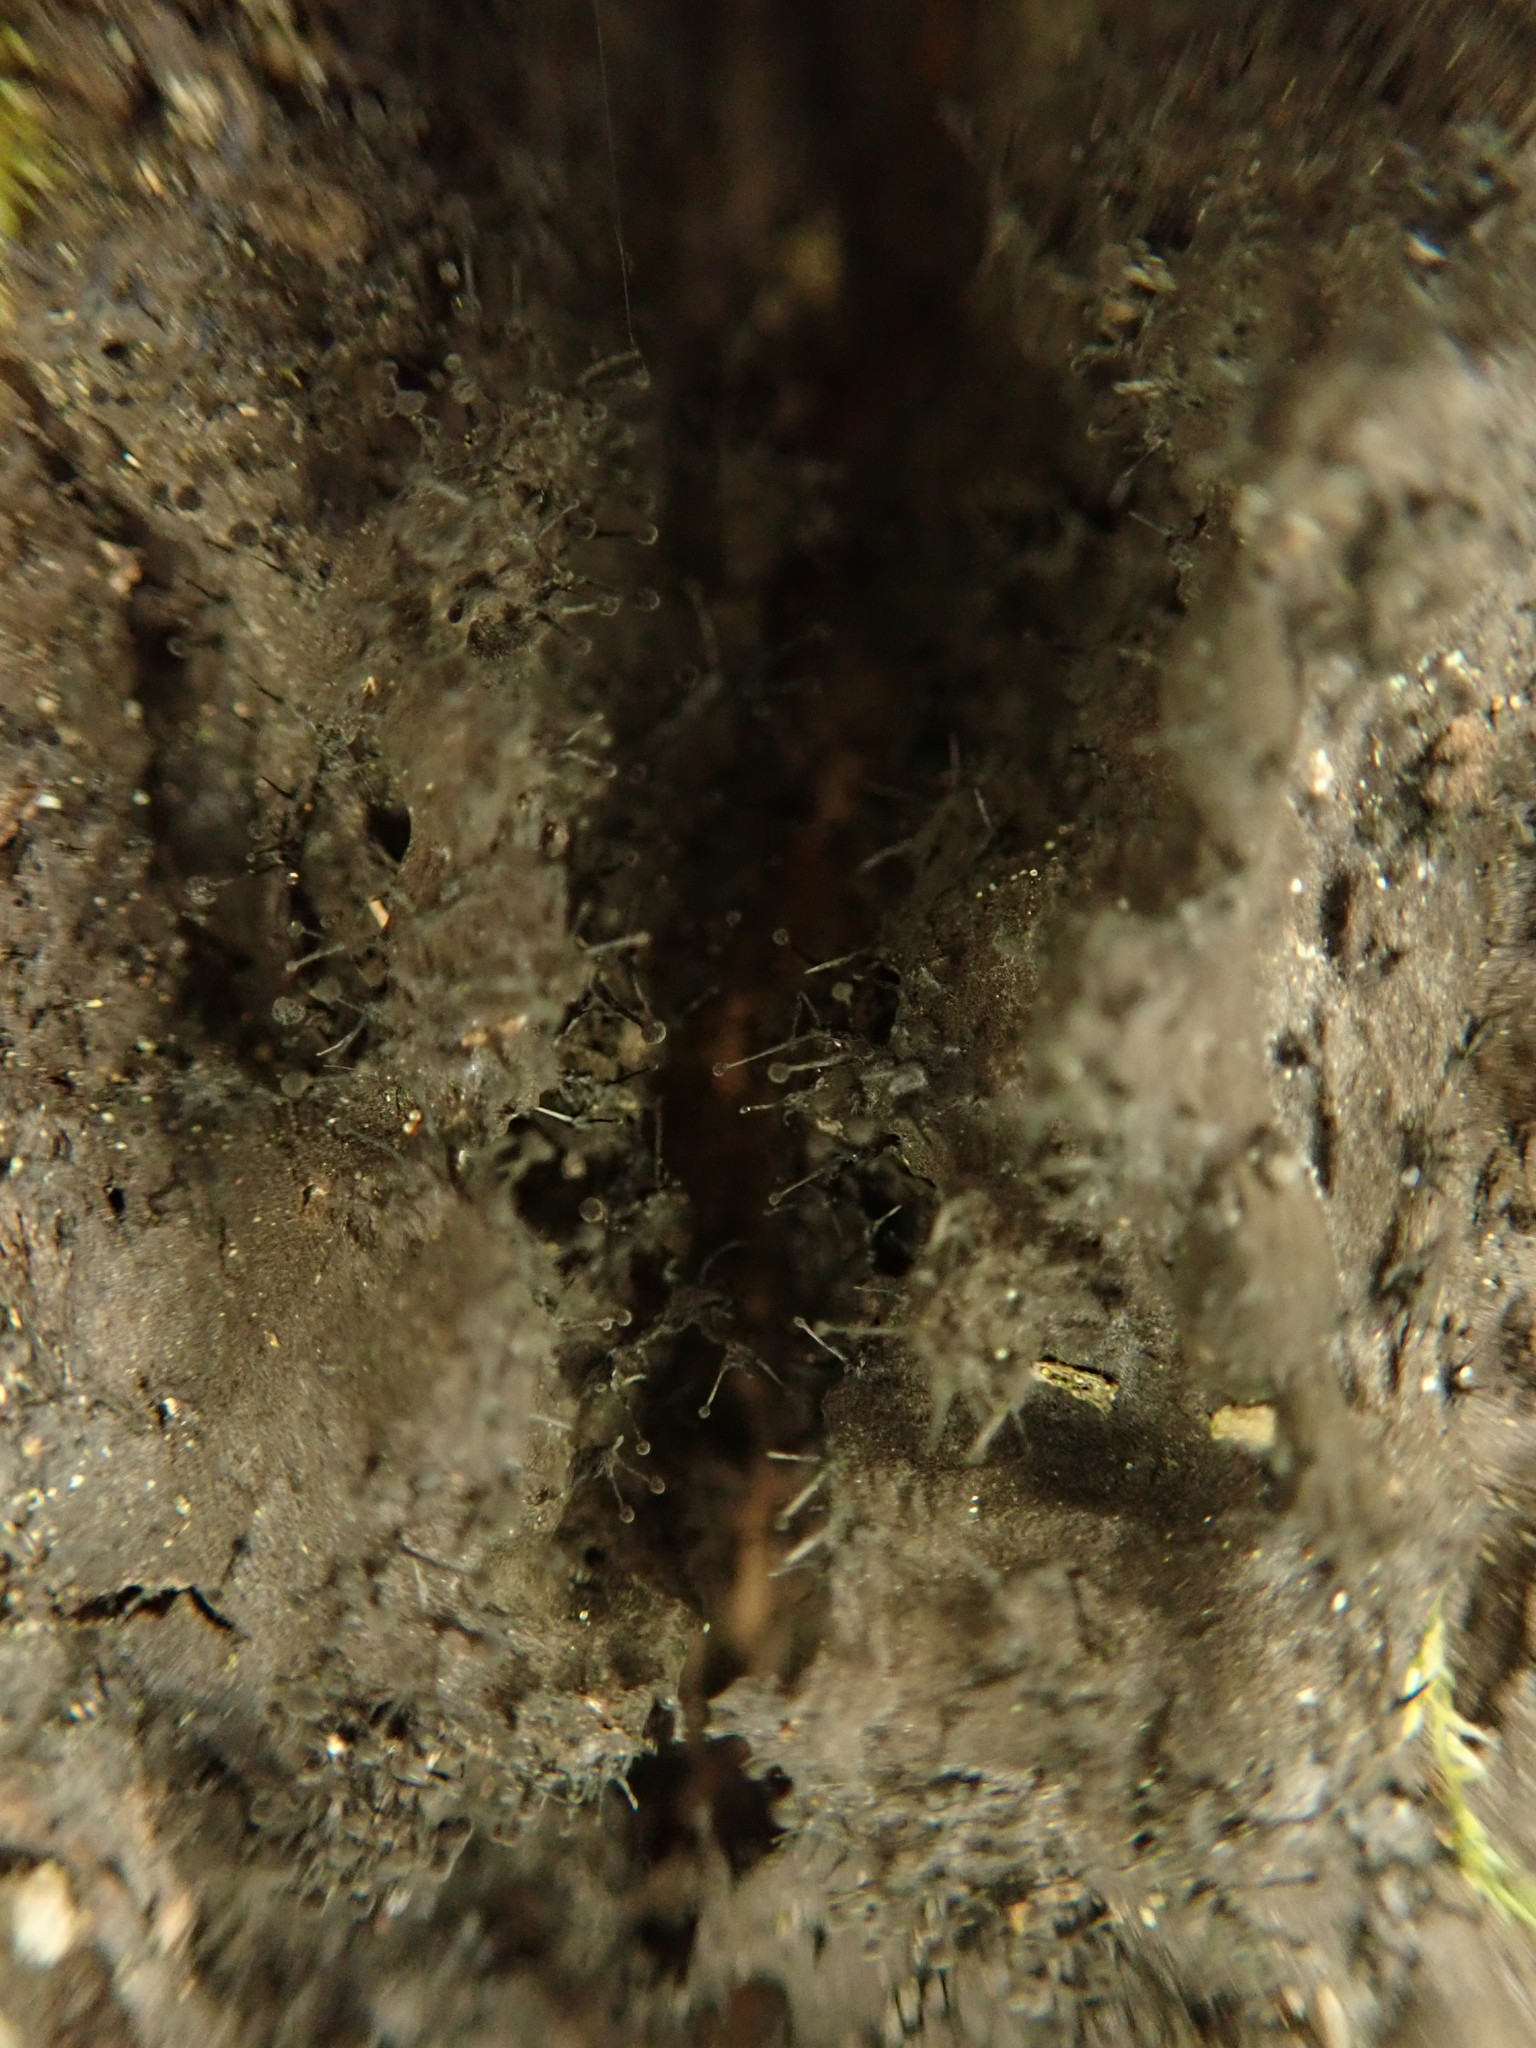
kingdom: Fungi
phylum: Ascomycota
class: Leotiomycetes
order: Helotiales
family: Amorphothecaceae
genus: Sorocybe
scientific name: Sorocybe resinae
